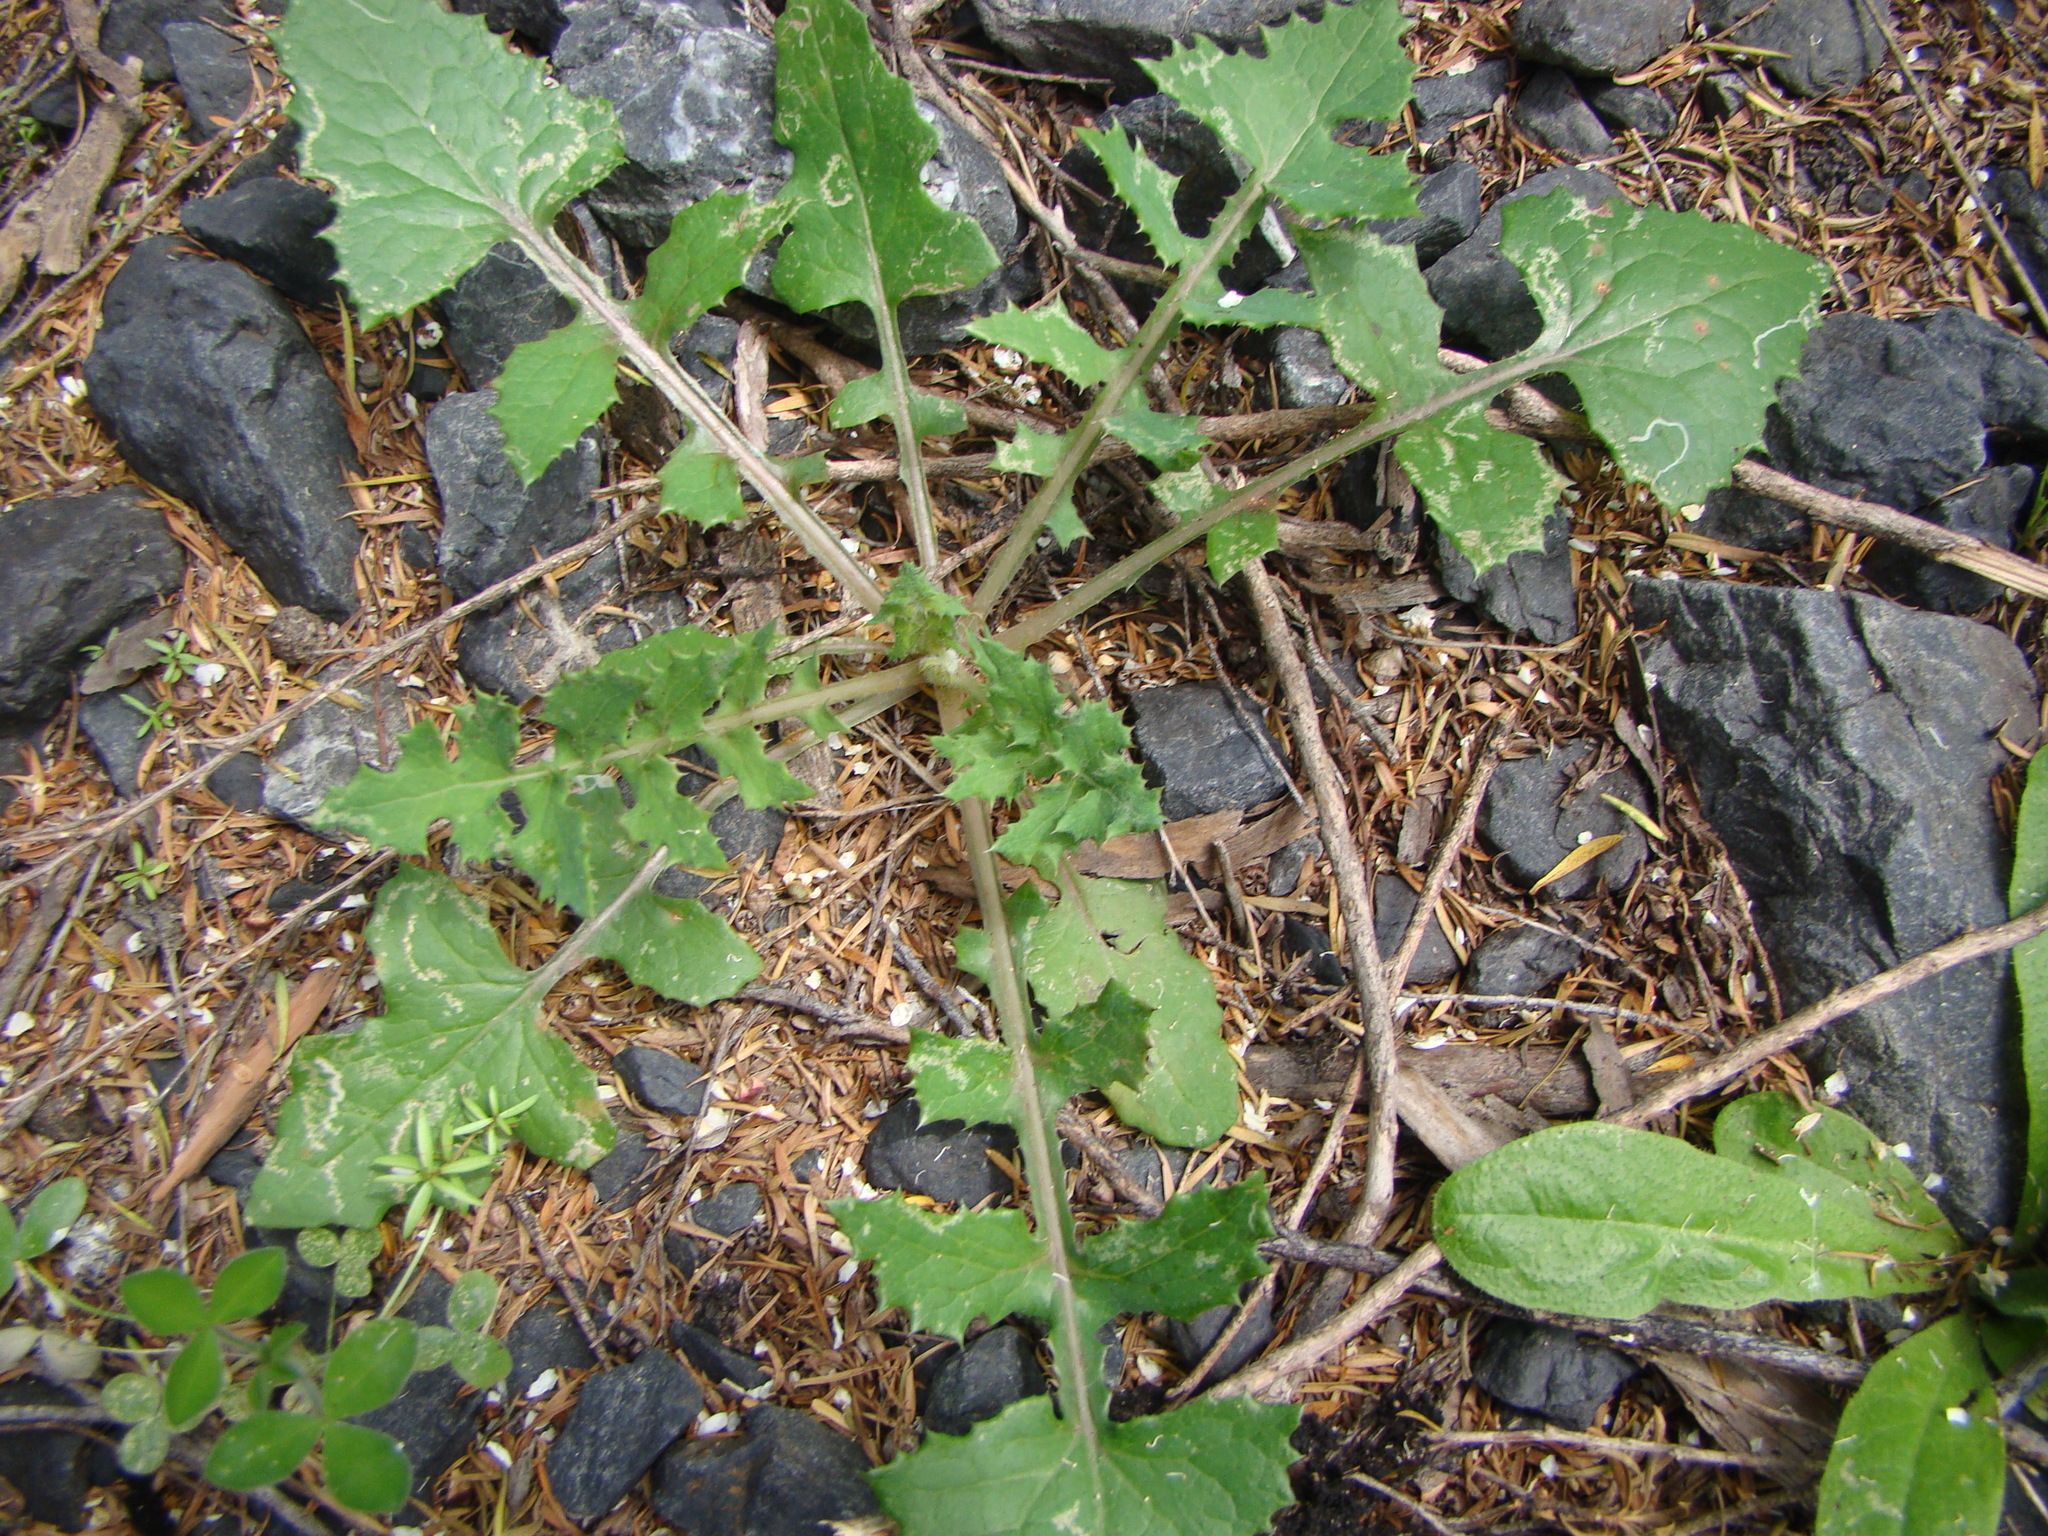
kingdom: Plantae
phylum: Tracheophyta
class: Magnoliopsida
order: Asterales
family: Asteraceae
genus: Sonchus
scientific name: Sonchus oleraceus
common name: Common sowthistle
